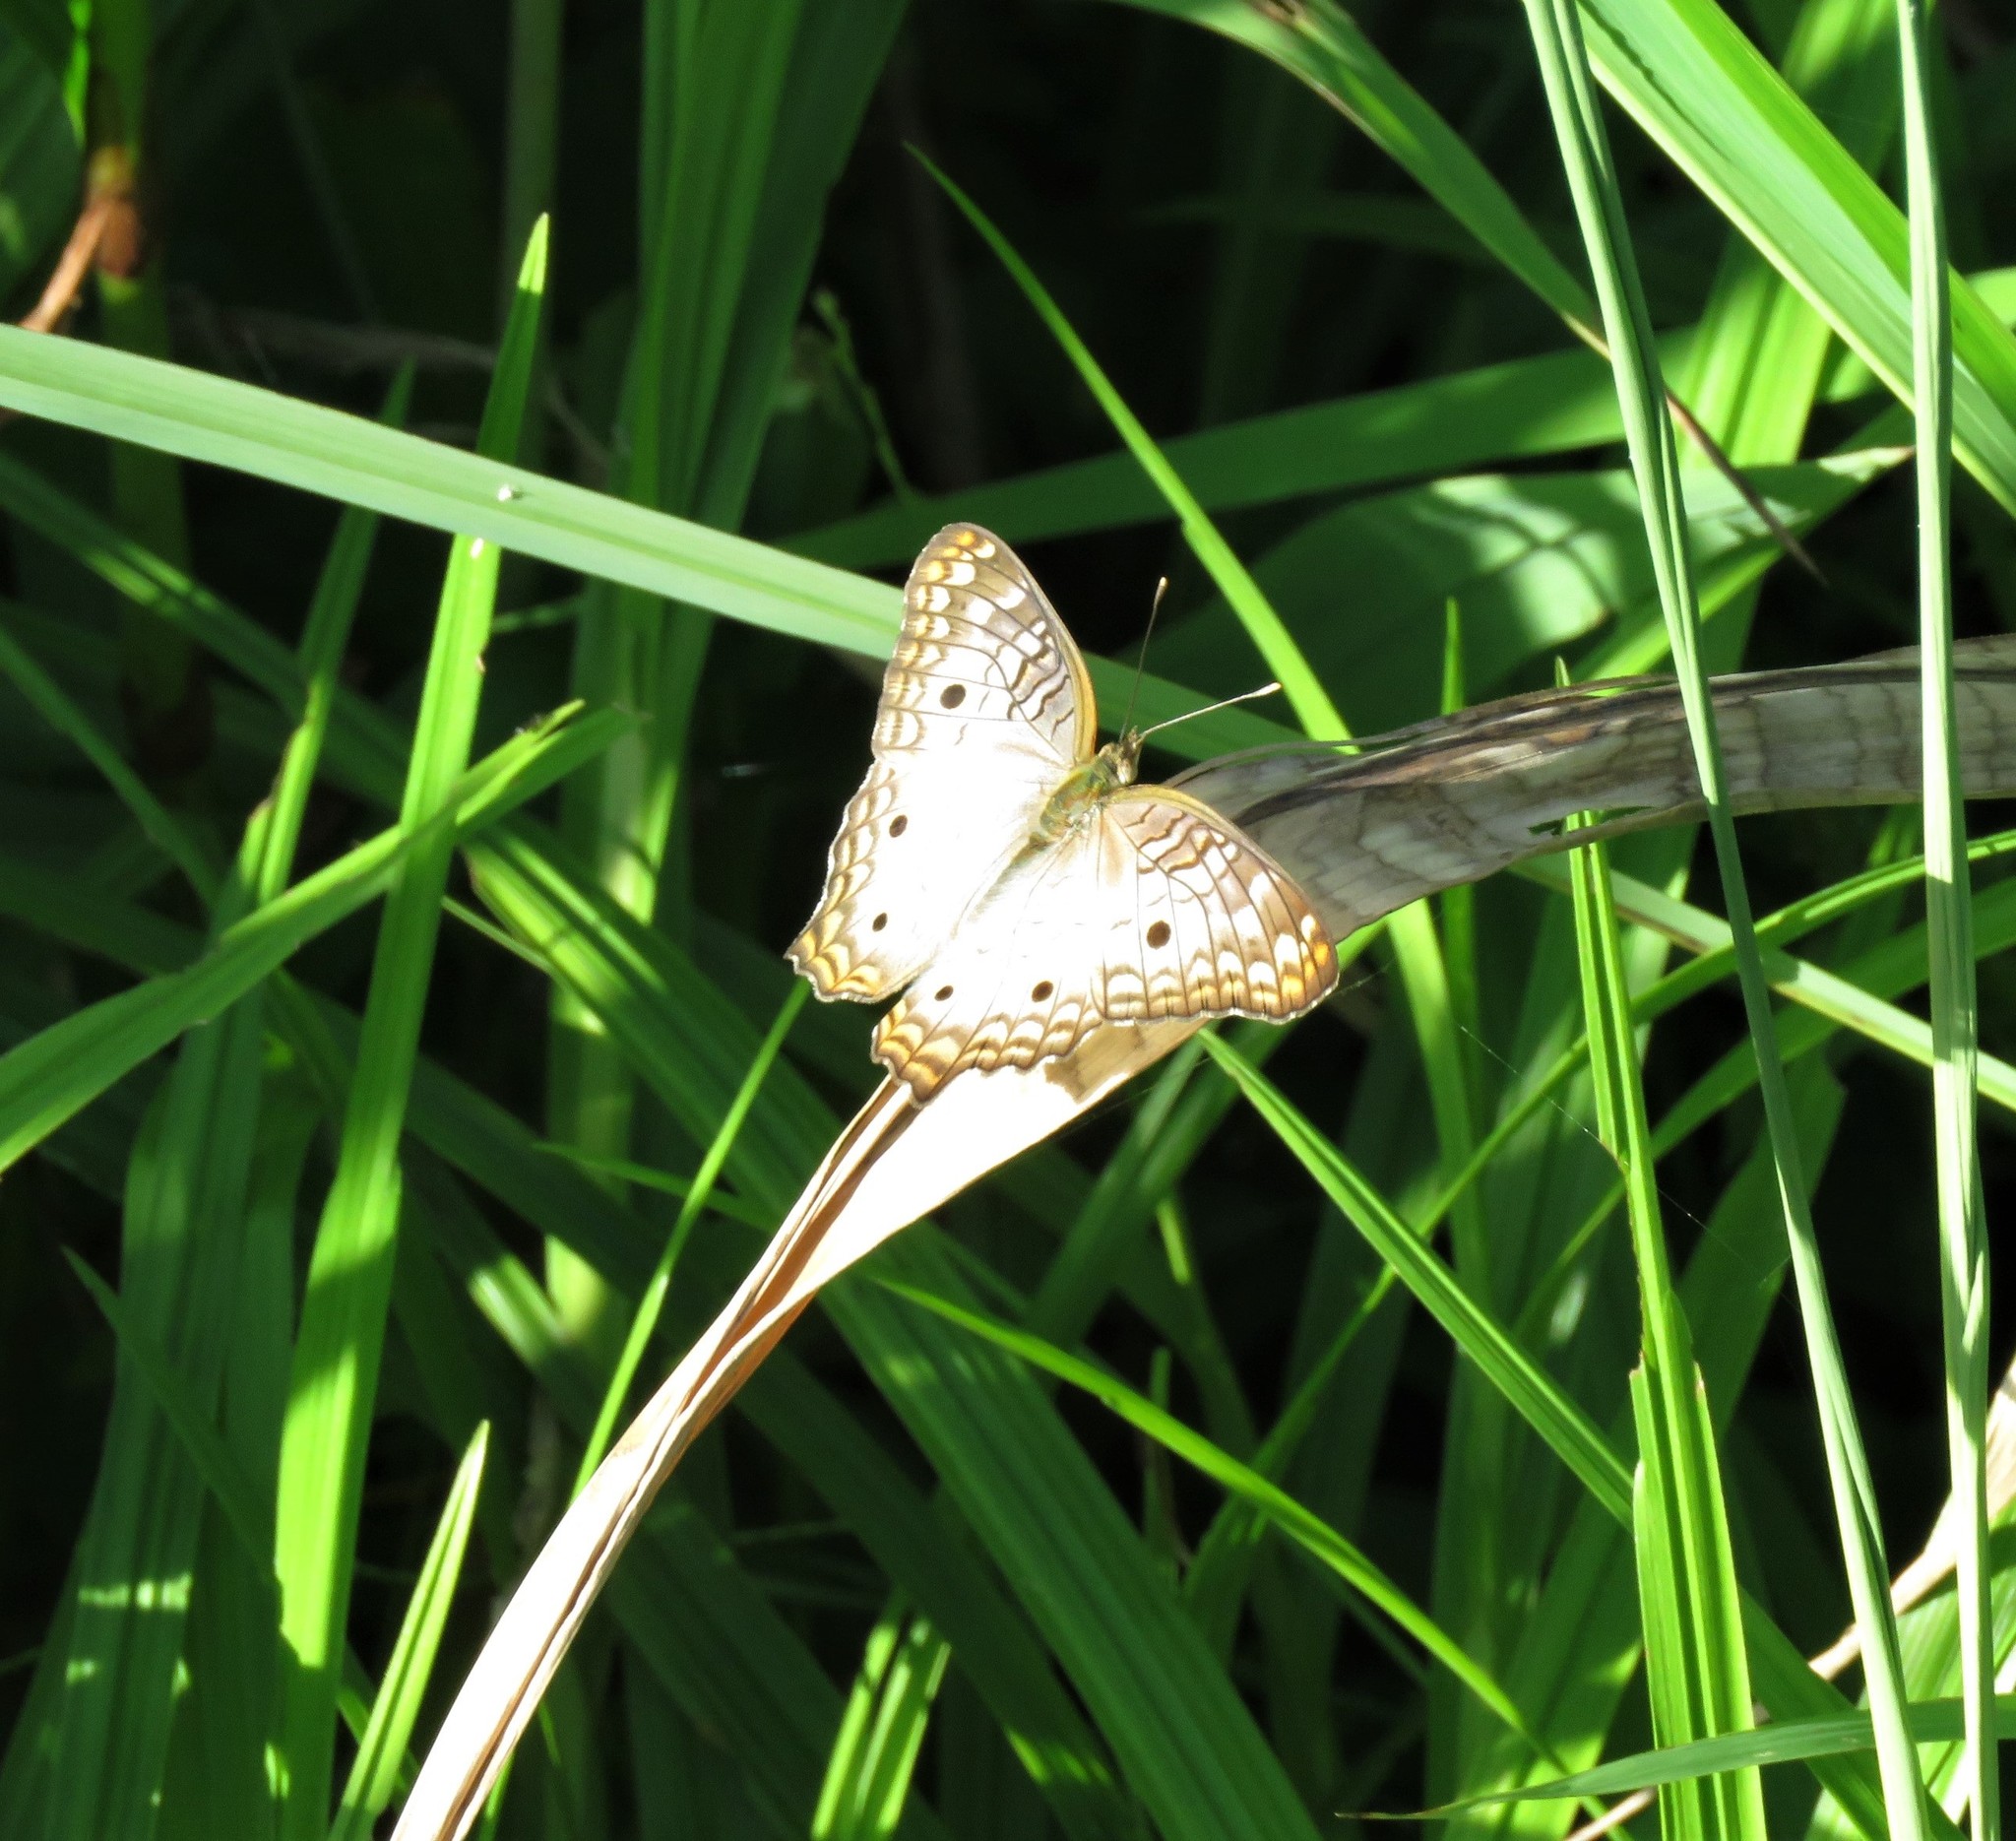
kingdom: Animalia
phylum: Arthropoda
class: Insecta
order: Lepidoptera
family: Nymphalidae
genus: Anartia
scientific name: Anartia jatrophae
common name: White peacock
